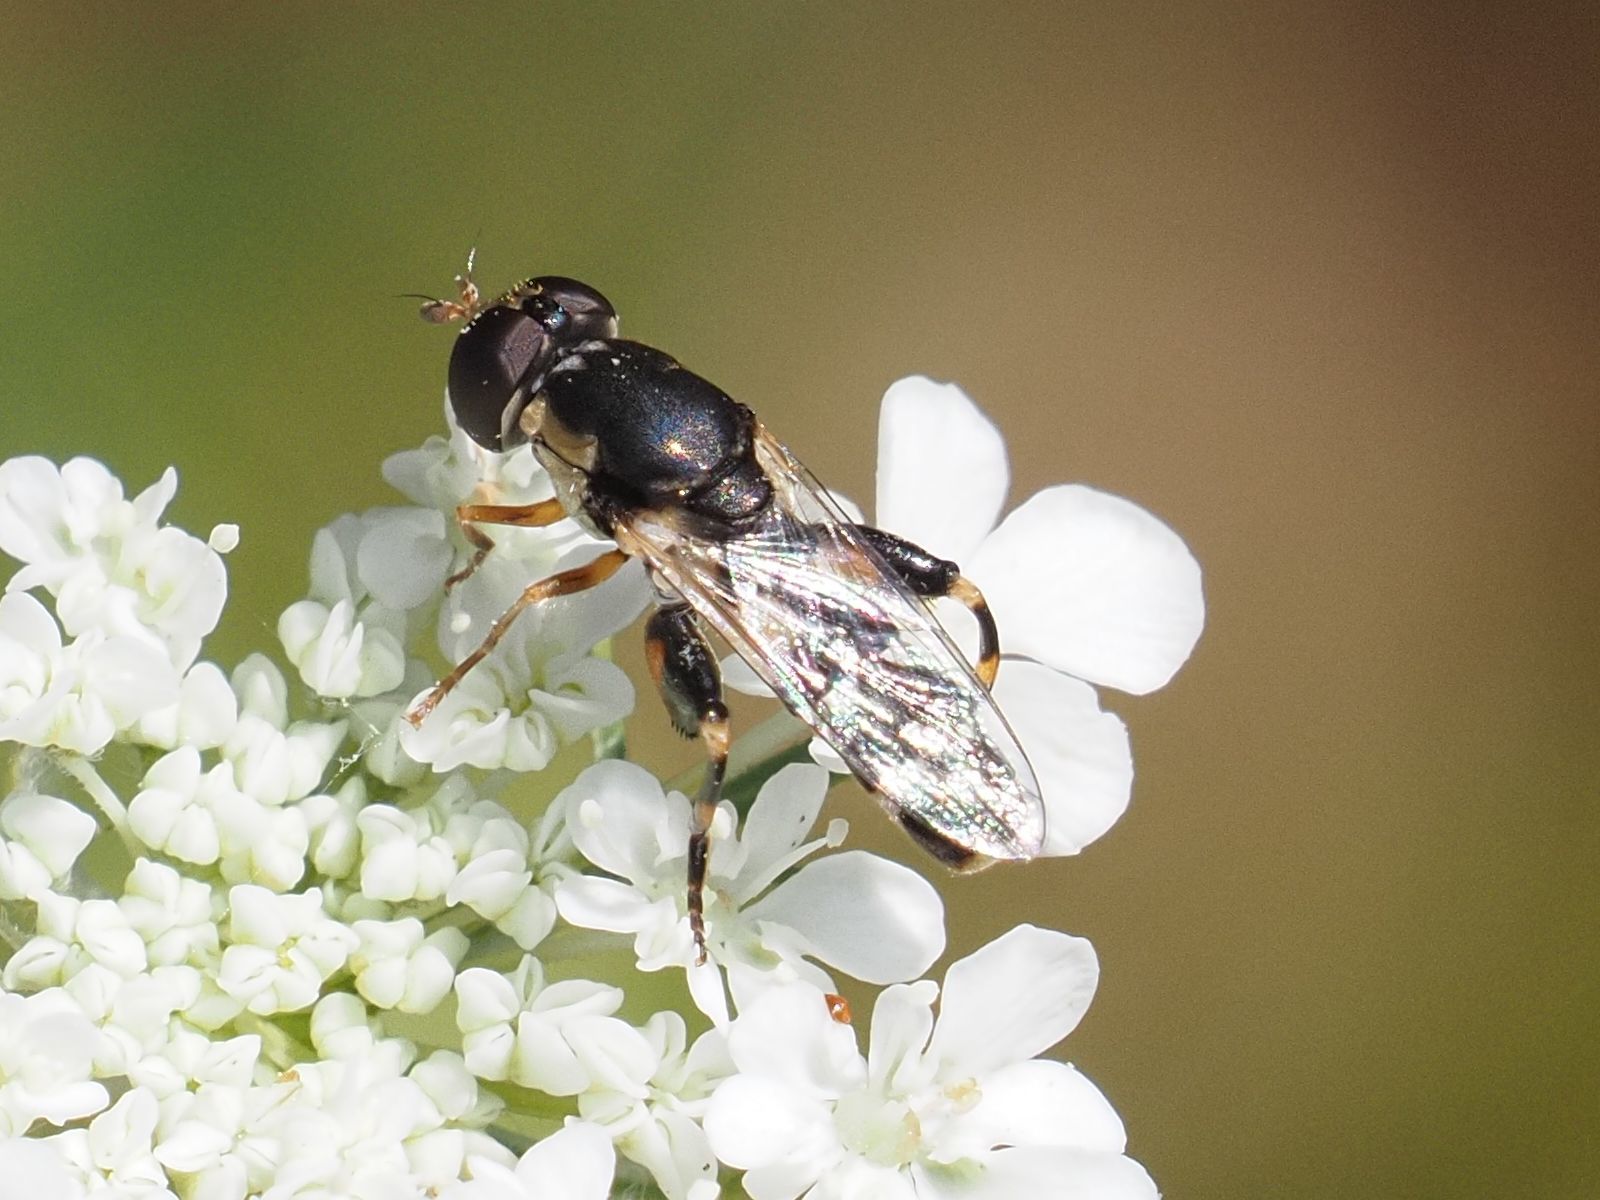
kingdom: Animalia
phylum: Arthropoda
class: Insecta
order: Diptera
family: Syrphidae
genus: Syritta
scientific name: Syritta pipiens
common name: Hover fly
